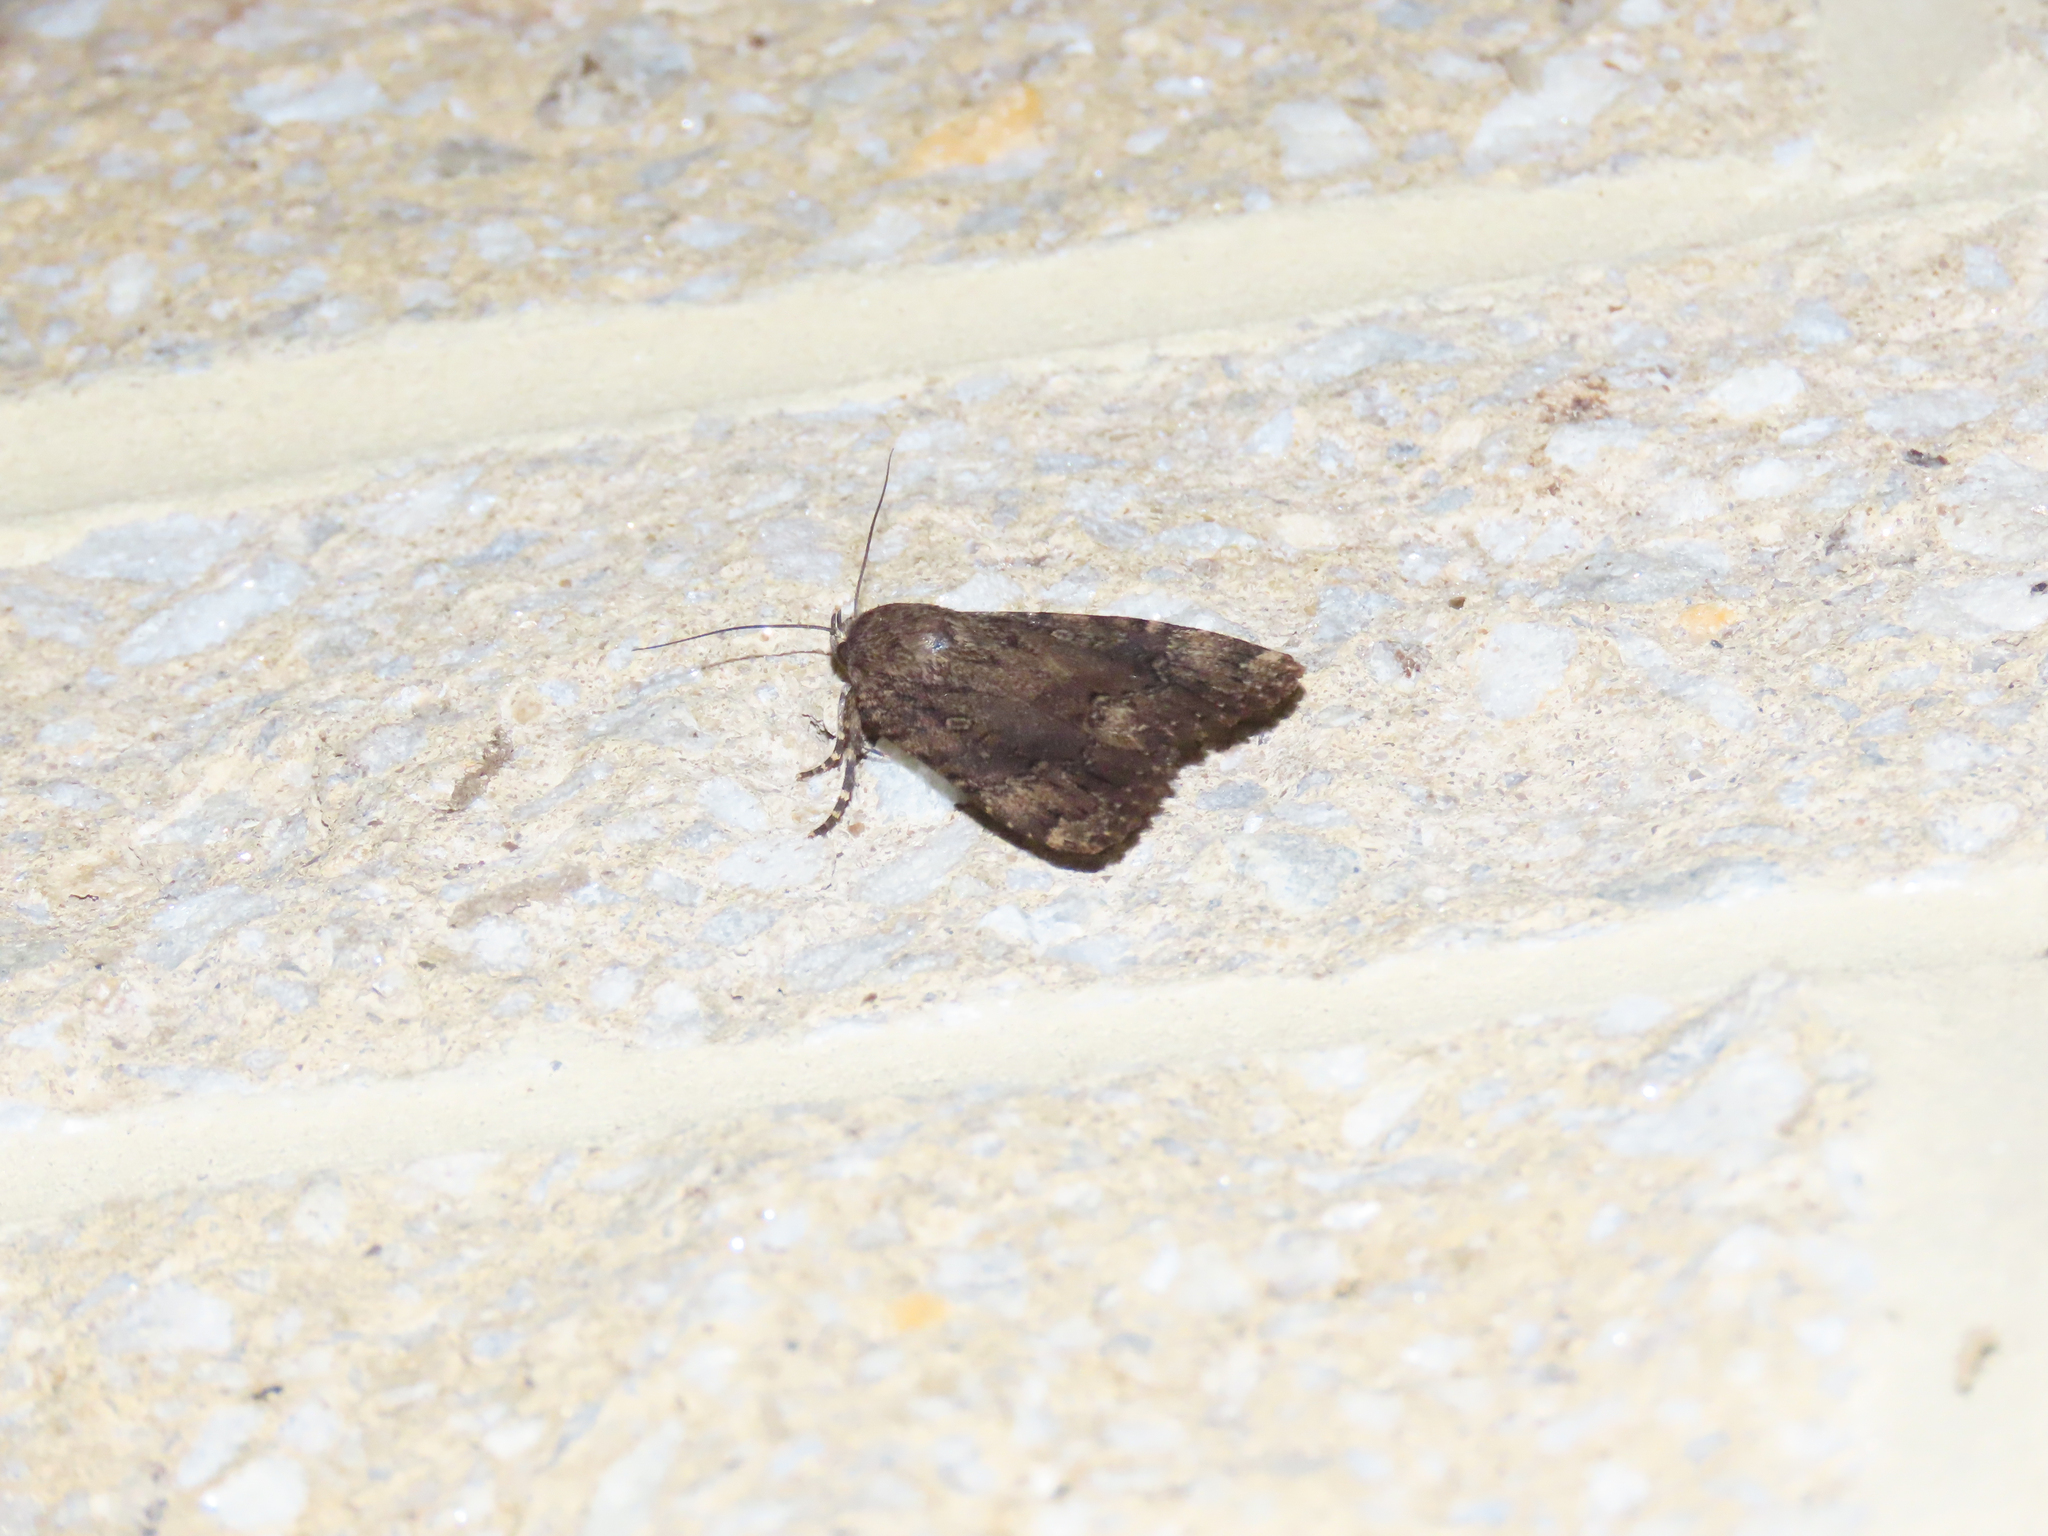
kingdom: Animalia
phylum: Arthropoda
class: Insecta
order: Lepidoptera
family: Noctuidae
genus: Amphipyra
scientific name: Amphipyra pyramidoides
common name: American copper underwing
